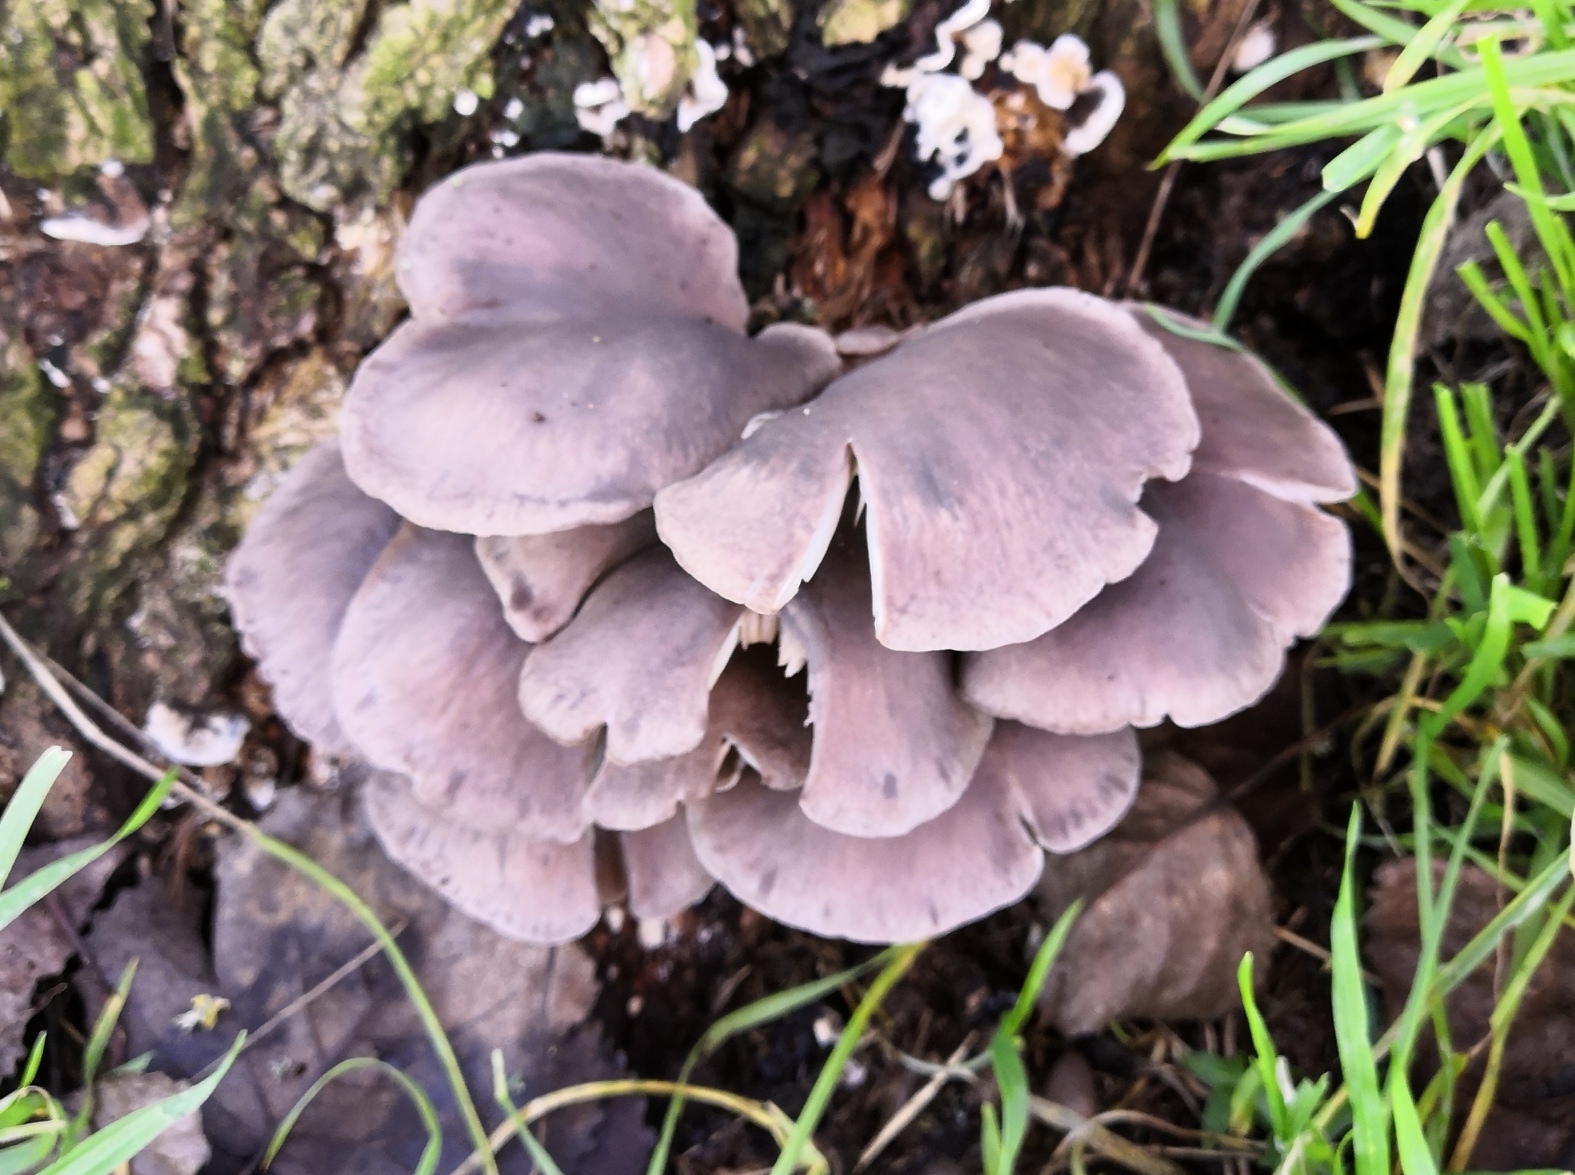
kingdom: Fungi
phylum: Basidiomycota
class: Agaricomycetes
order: Agaricales
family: Pleurotaceae
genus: Pleurotus
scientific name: Pleurotus ostreatus
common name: Oyster mushroom
